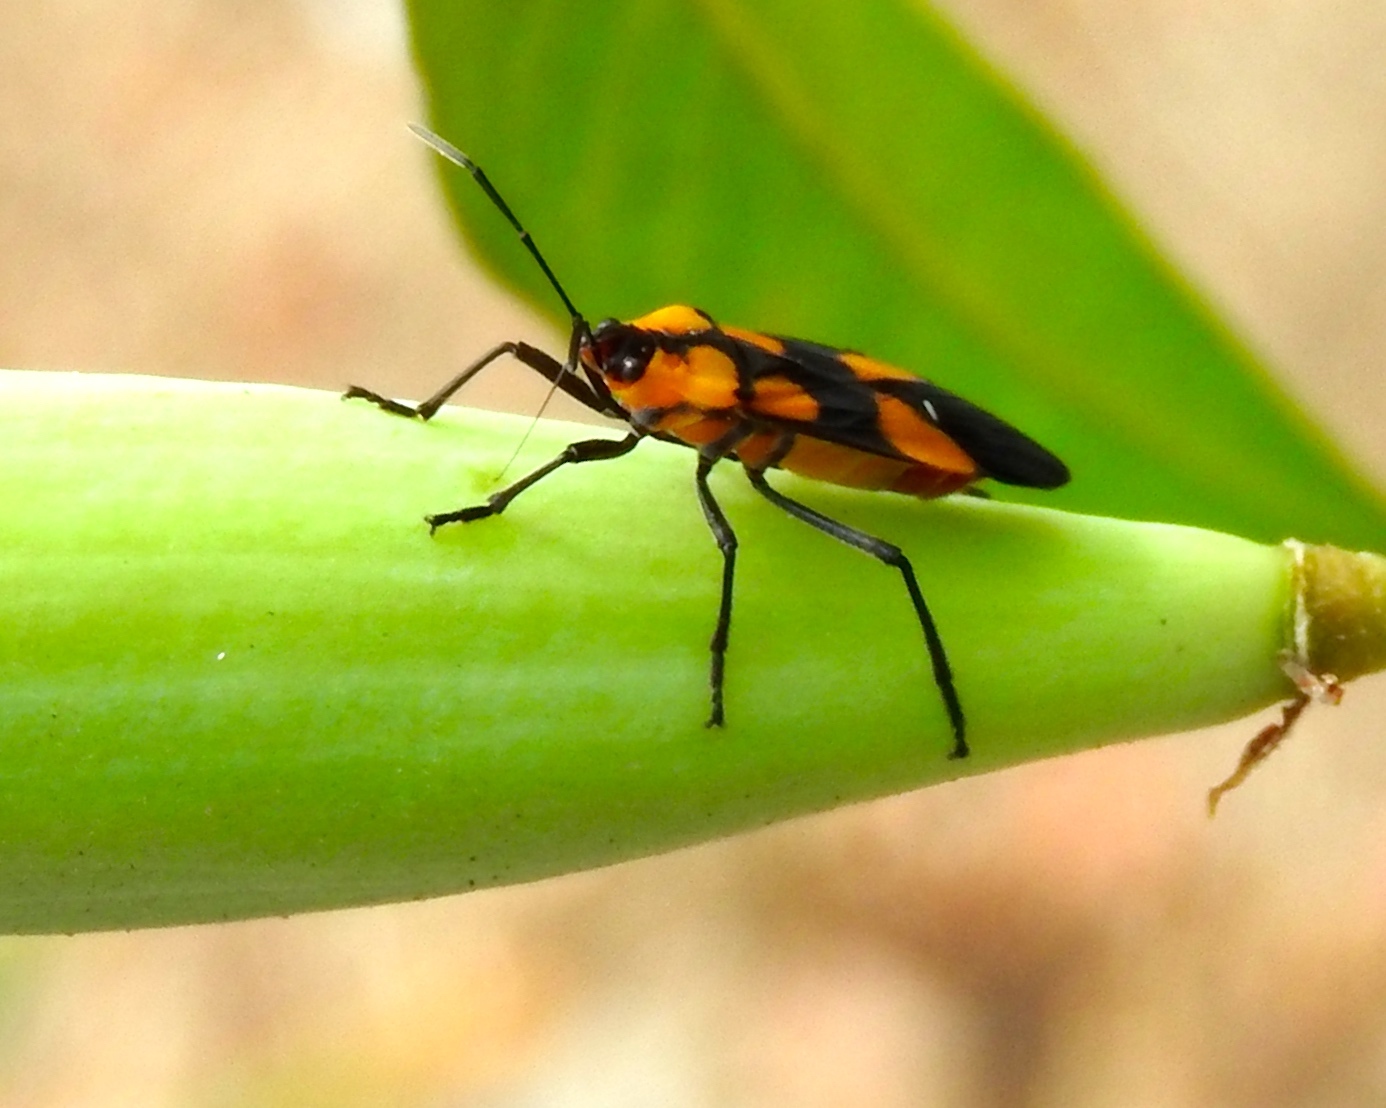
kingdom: Animalia
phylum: Arthropoda
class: Insecta
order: Hemiptera
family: Lygaeidae
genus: Oncopeltus
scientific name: Oncopeltus sexmaculatus
